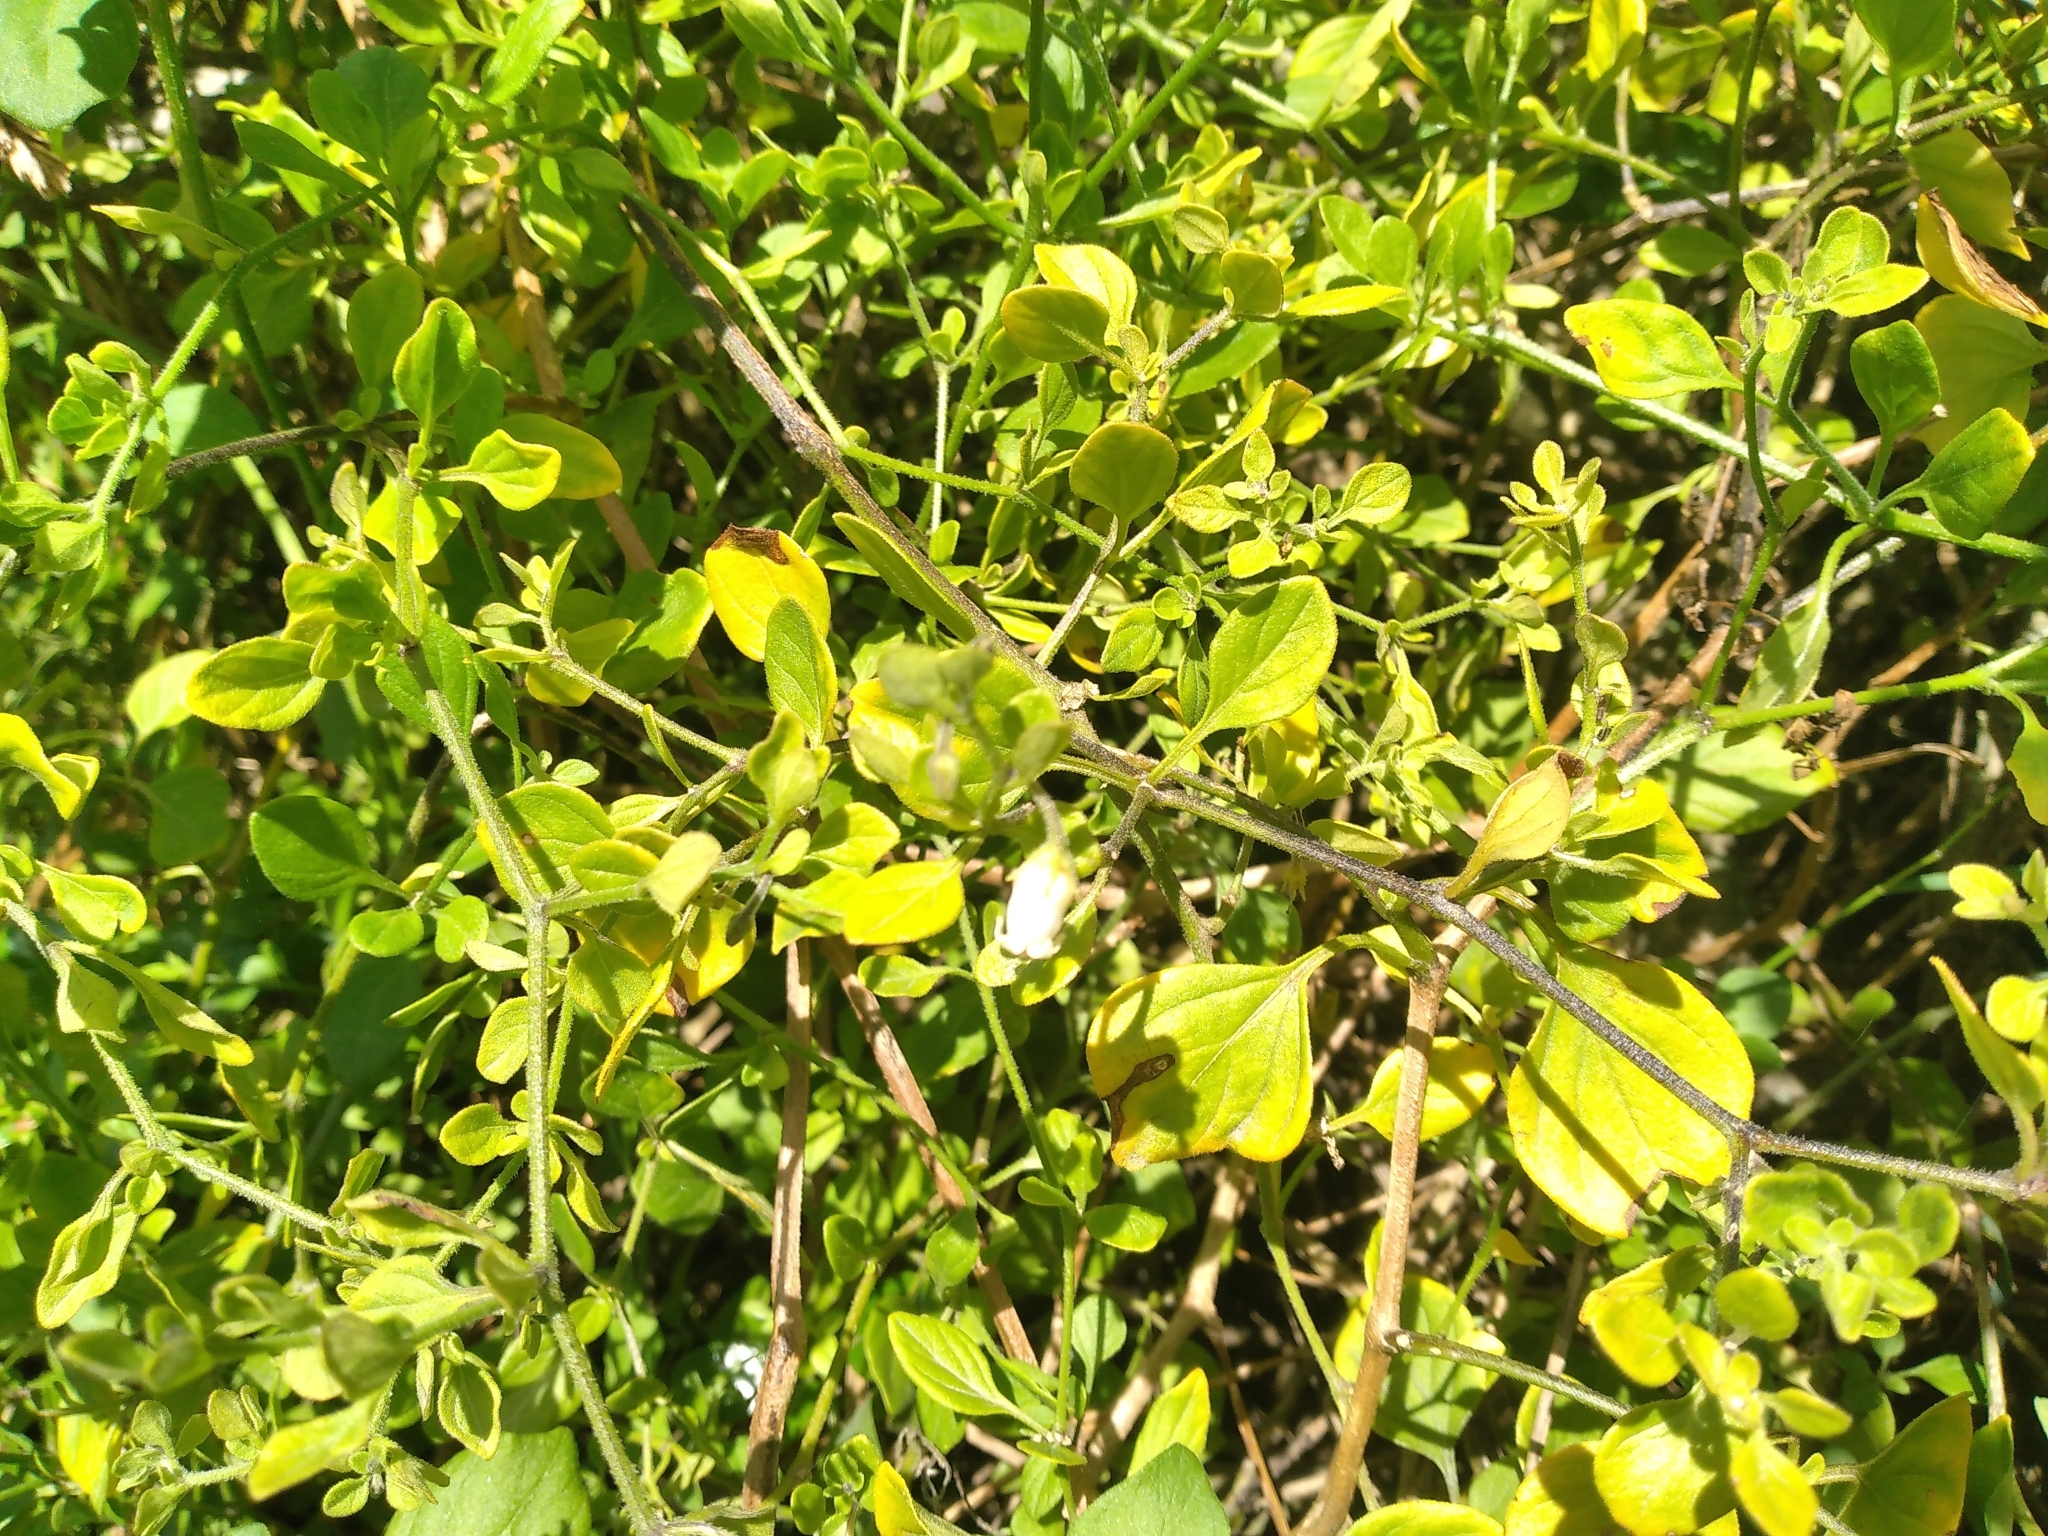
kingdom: Plantae
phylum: Tracheophyta
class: Magnoliopsida
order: Solanales
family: Solanaceae
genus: Salpichroa
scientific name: Salpichroa origanifolia
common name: Lily-of-the-valley-vine
